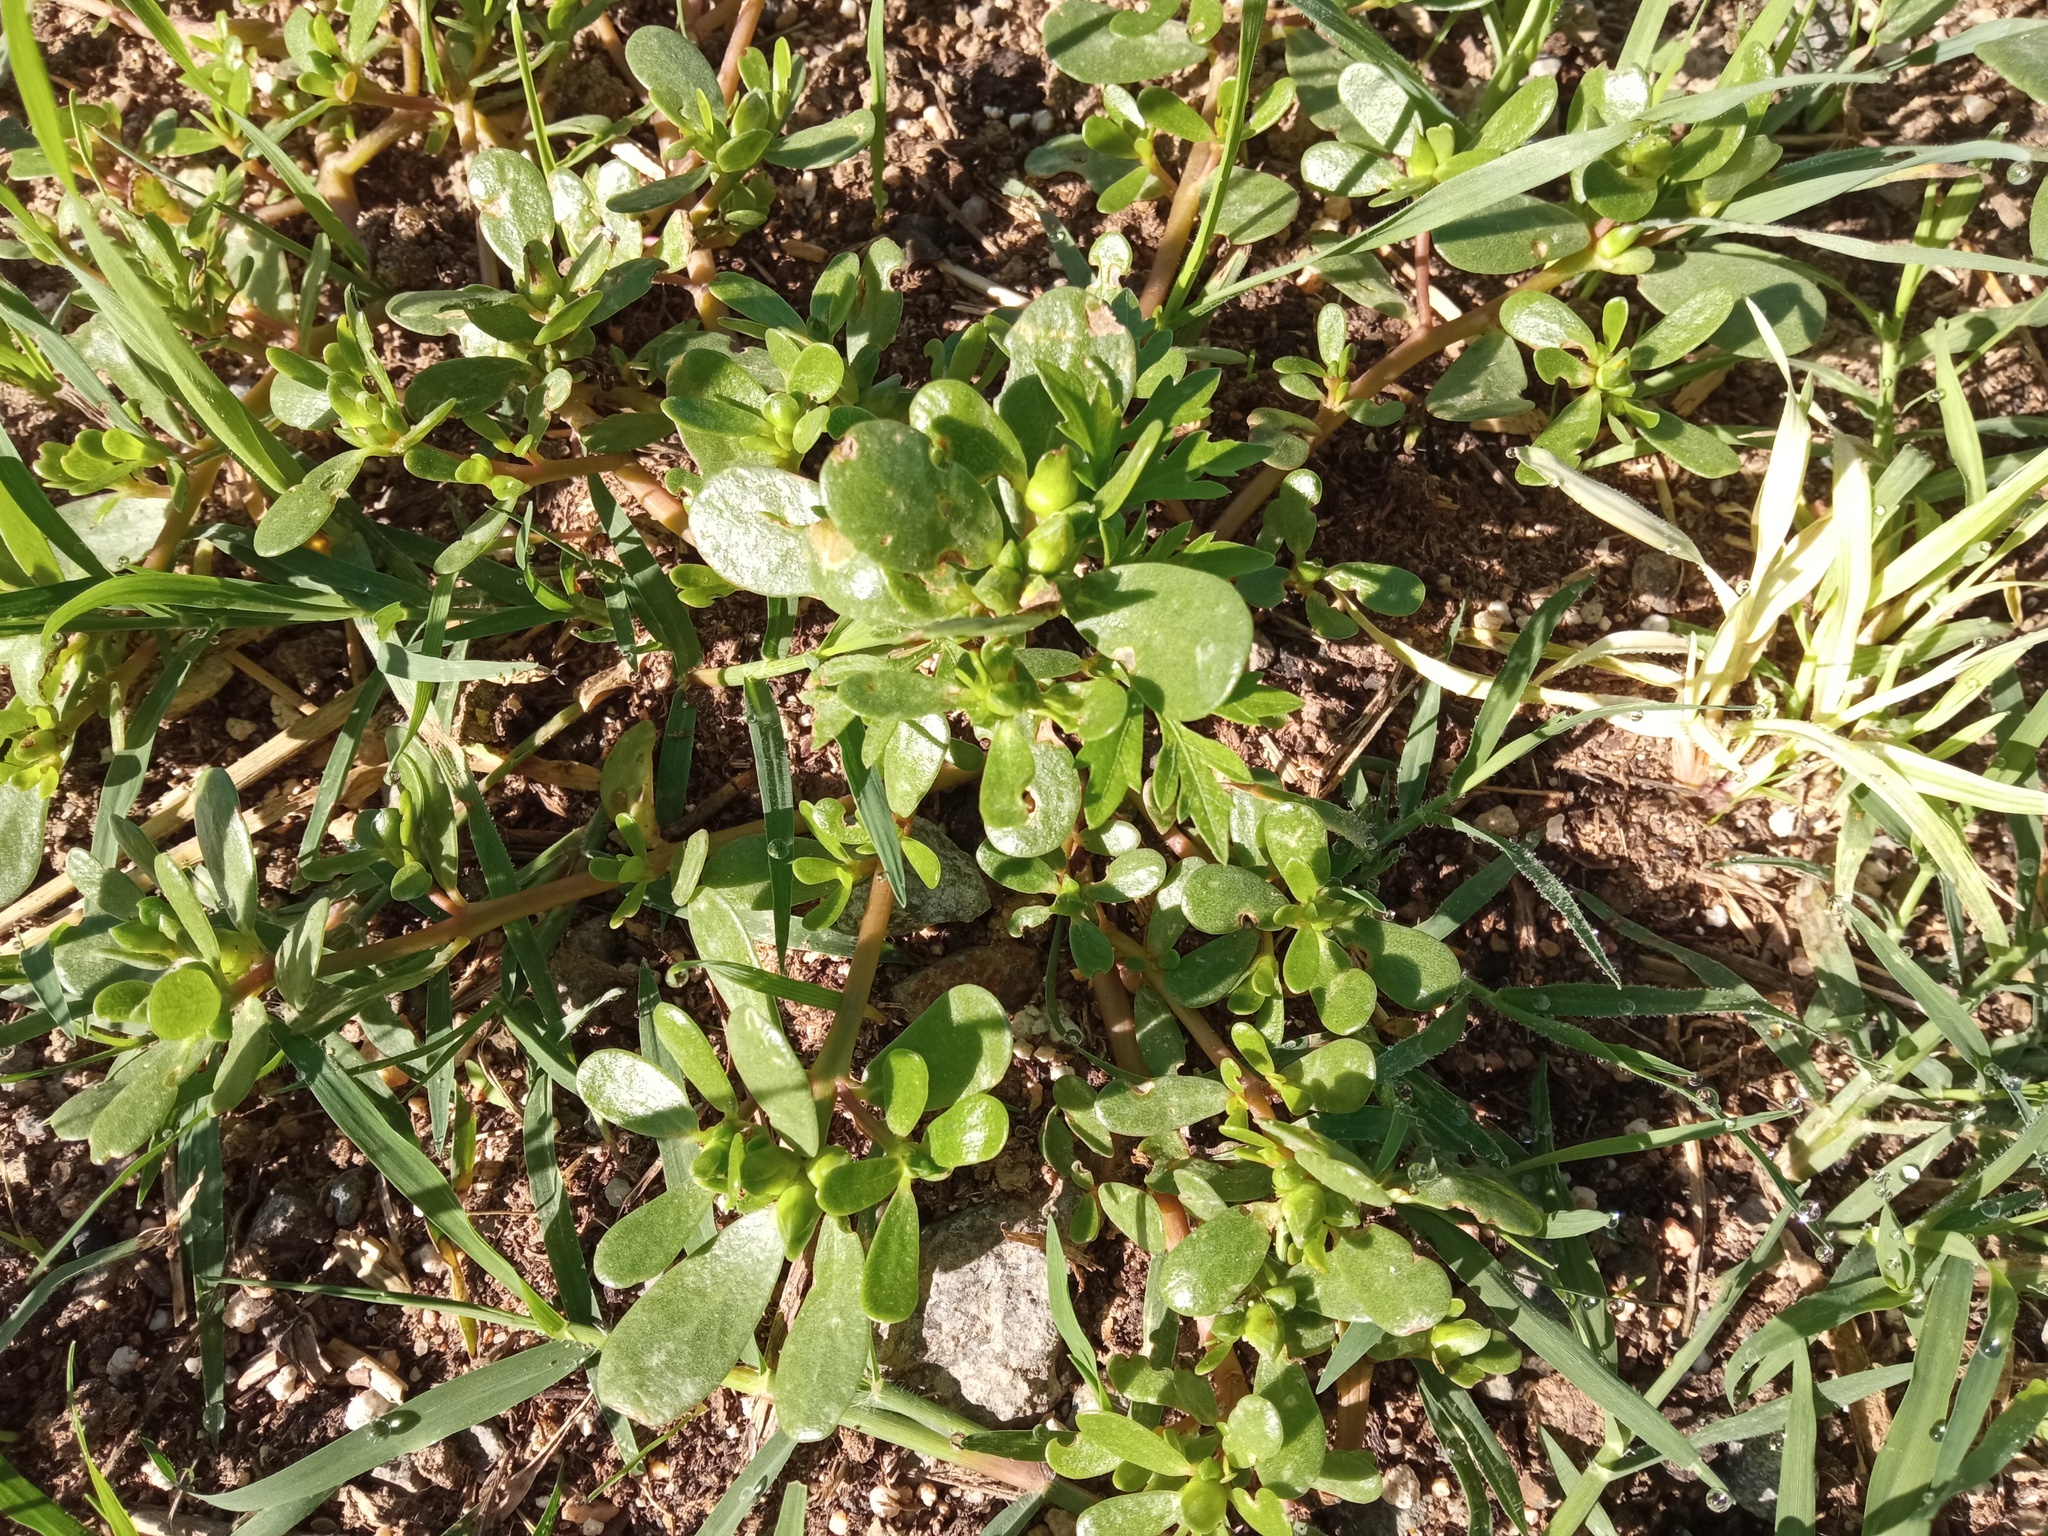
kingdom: Plantae
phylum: Tracheophyta
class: Magnoliopsida
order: Caryophyllales
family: Portulacaceae
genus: Portulaca
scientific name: Portulaca oleracea
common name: Common purslane
